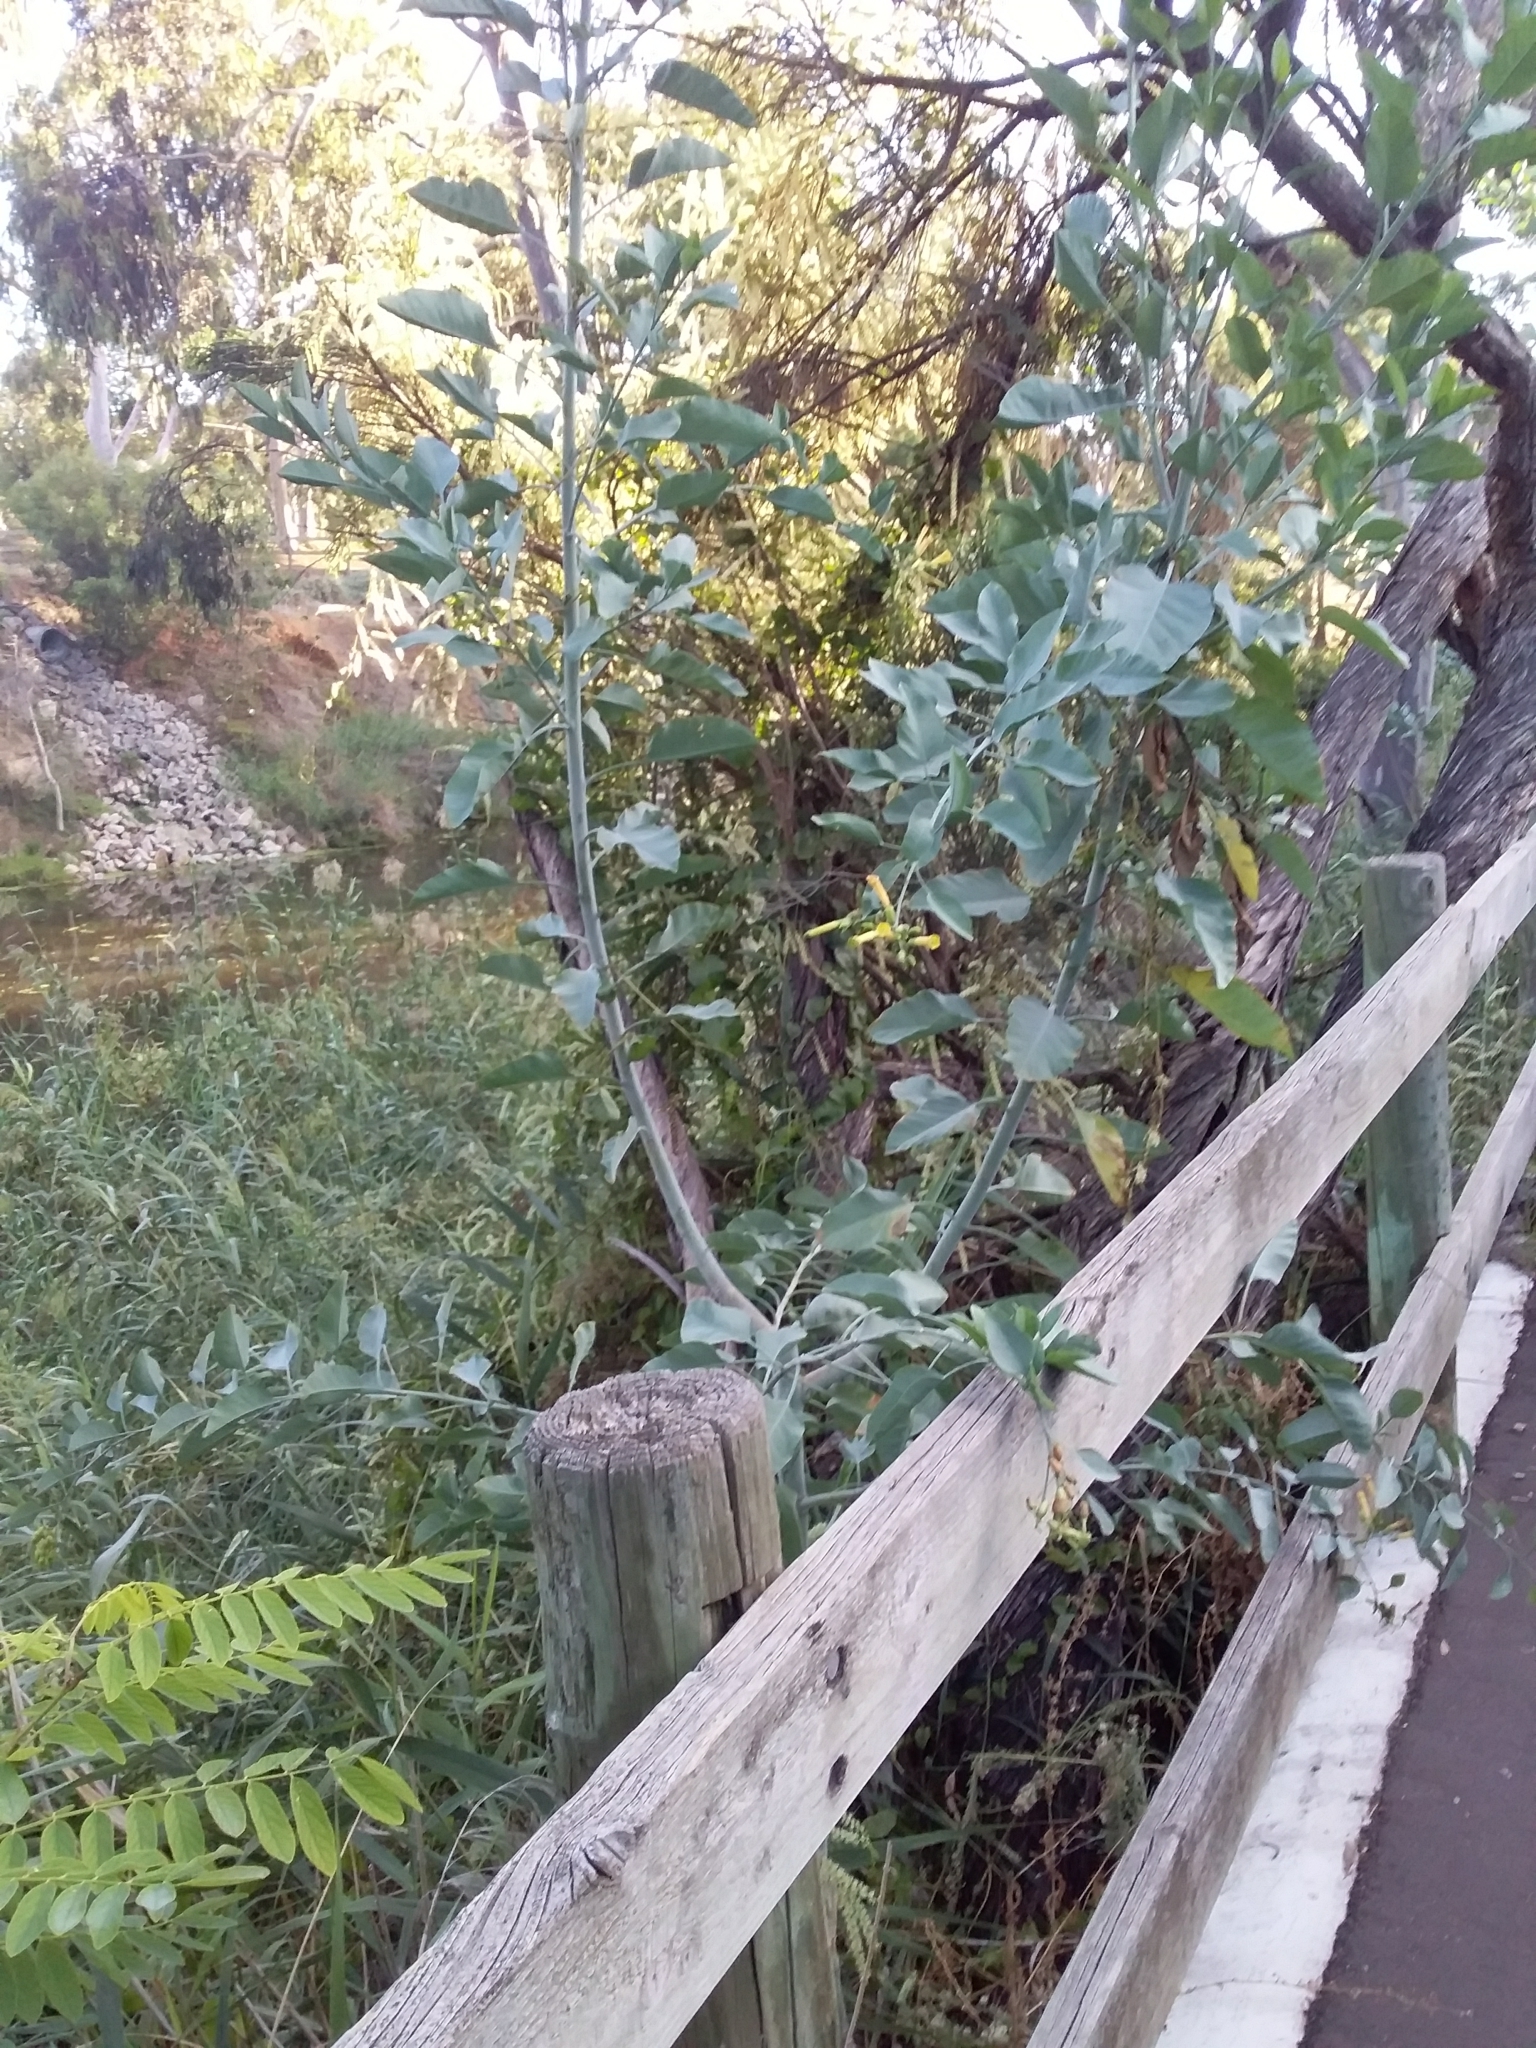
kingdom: Plantae
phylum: Tracheophyta
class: Magnoliopsida
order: Solanales
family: Solanaceae
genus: Nicotiana
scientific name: Nicotiana glauca
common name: Tree tobacco
